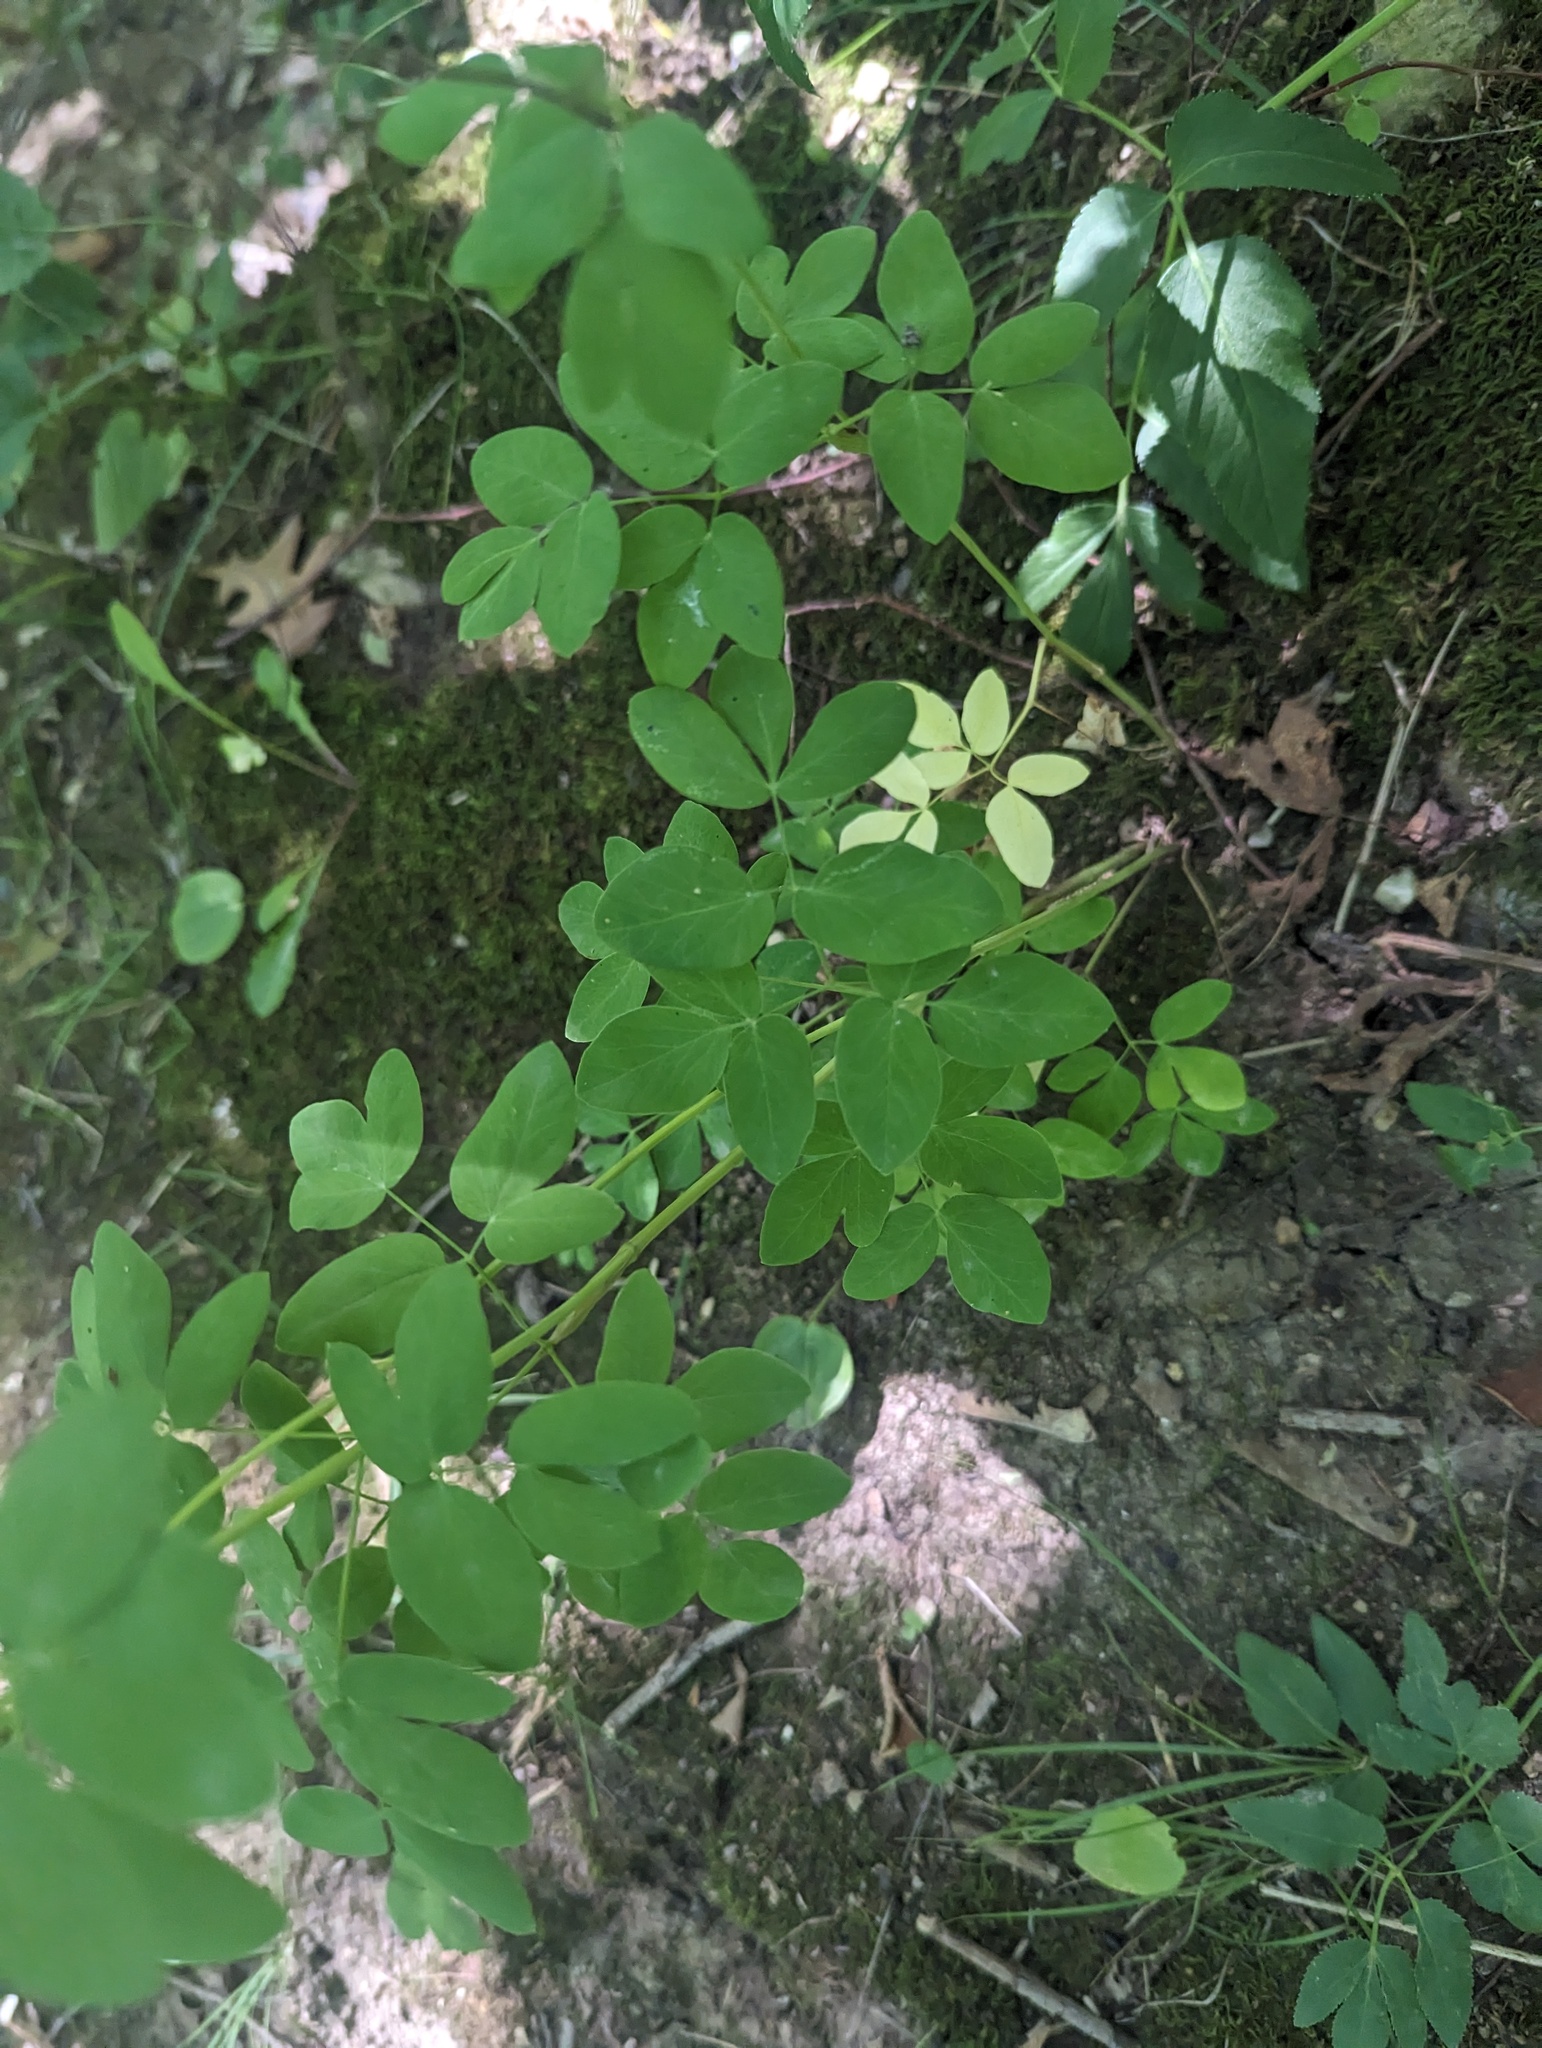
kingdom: Plantae
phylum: Tracheophyta
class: Magnoliopsida
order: Apiales
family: Apiaceae
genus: Taenidia
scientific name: Taenidia integerrima
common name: Golden alexander
